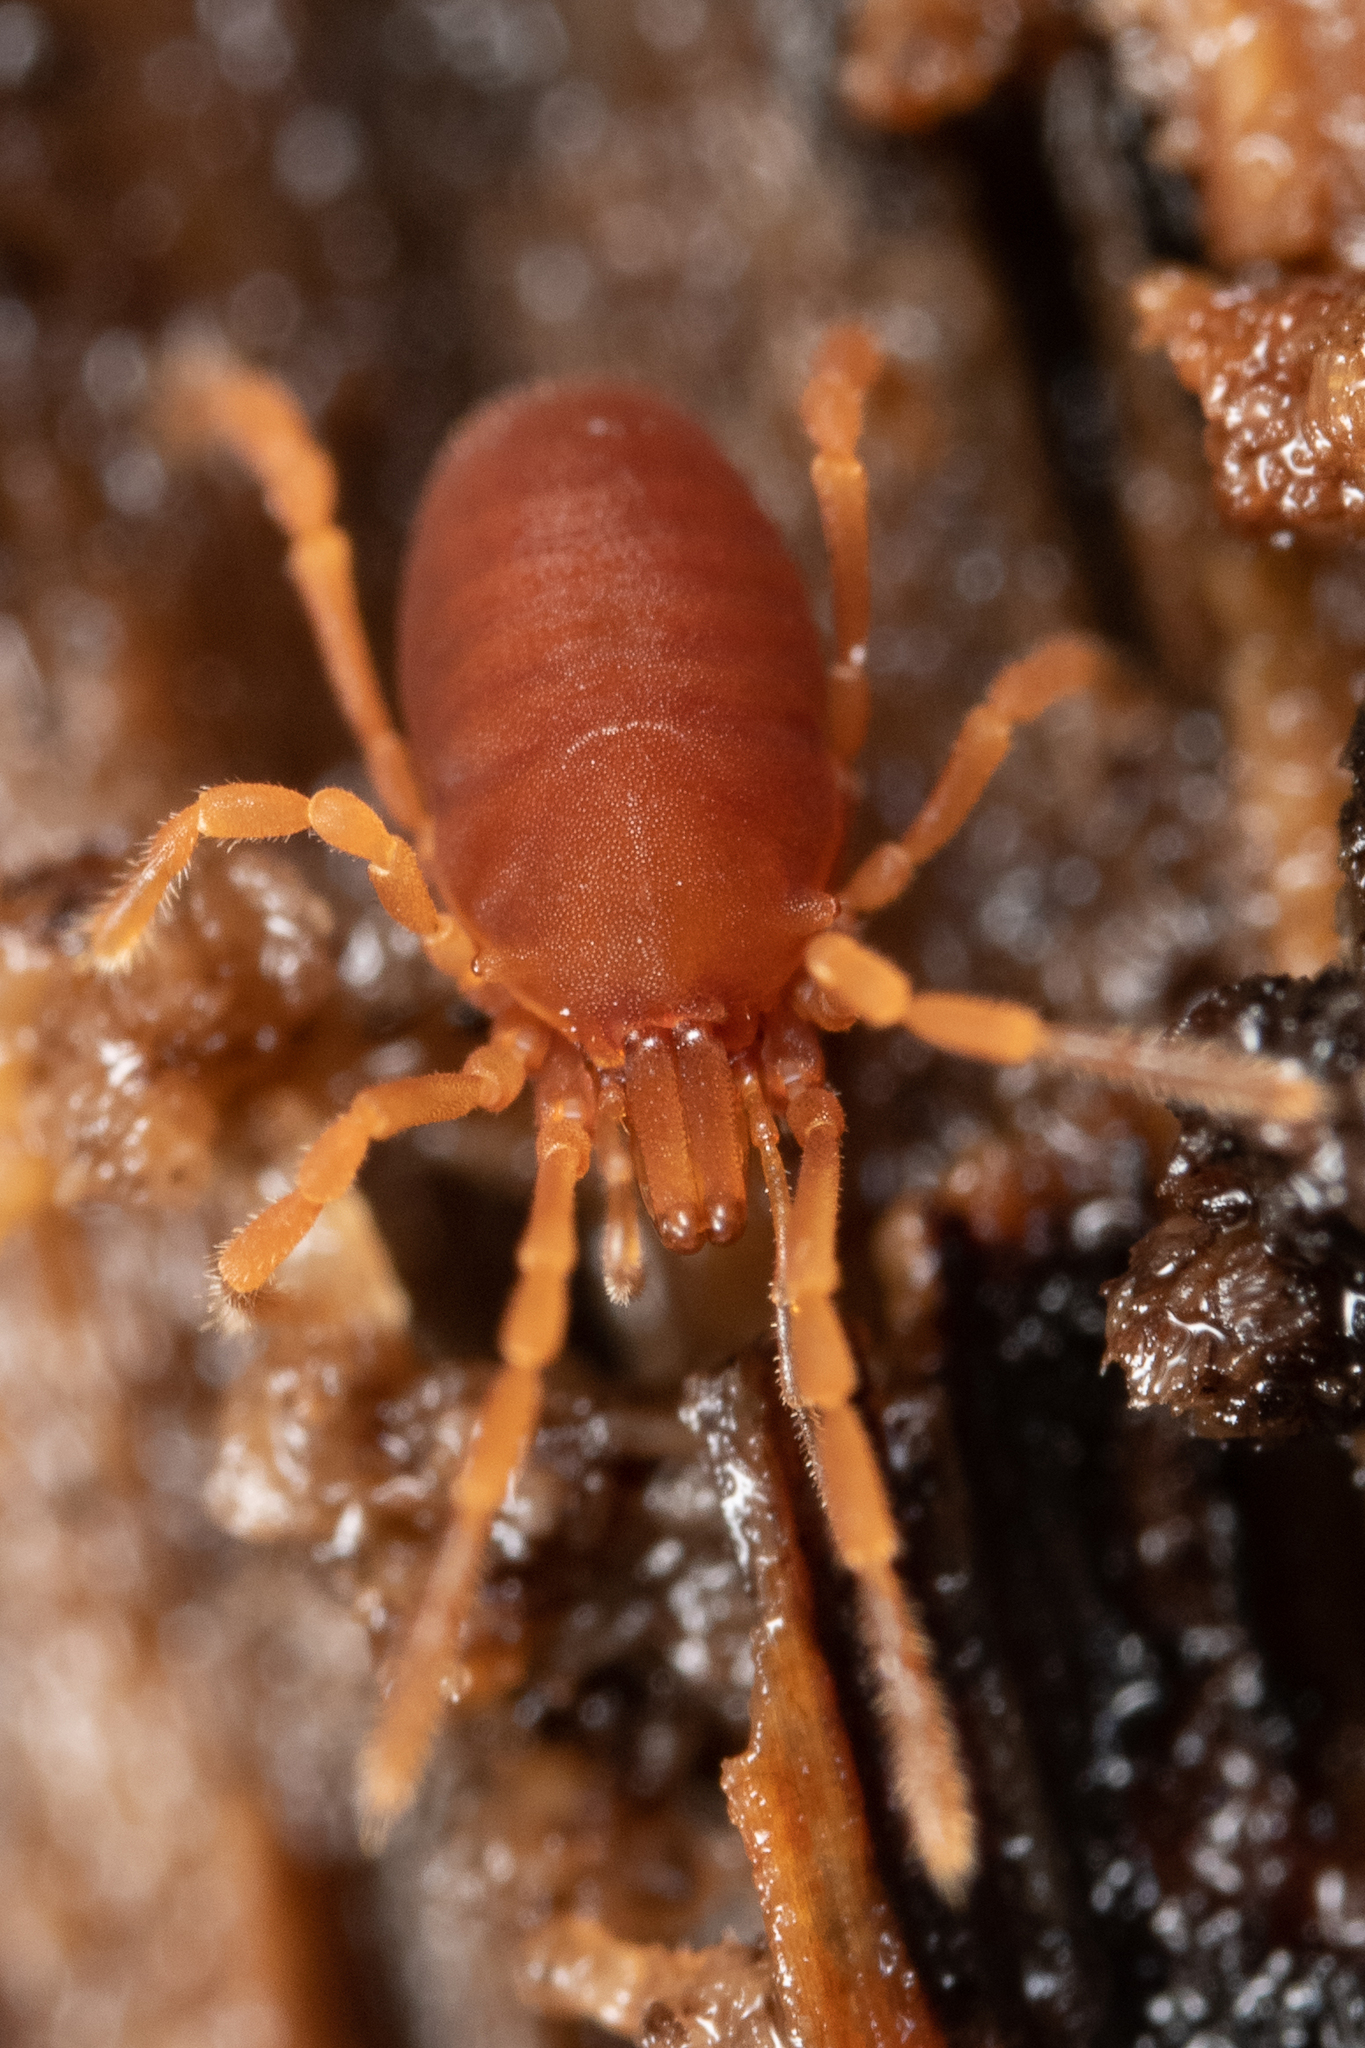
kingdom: Animalia
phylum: Arthropoda
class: Arachnida
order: Opiliones
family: Sironidae
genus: Holosiro
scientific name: Holosiro acaroides
